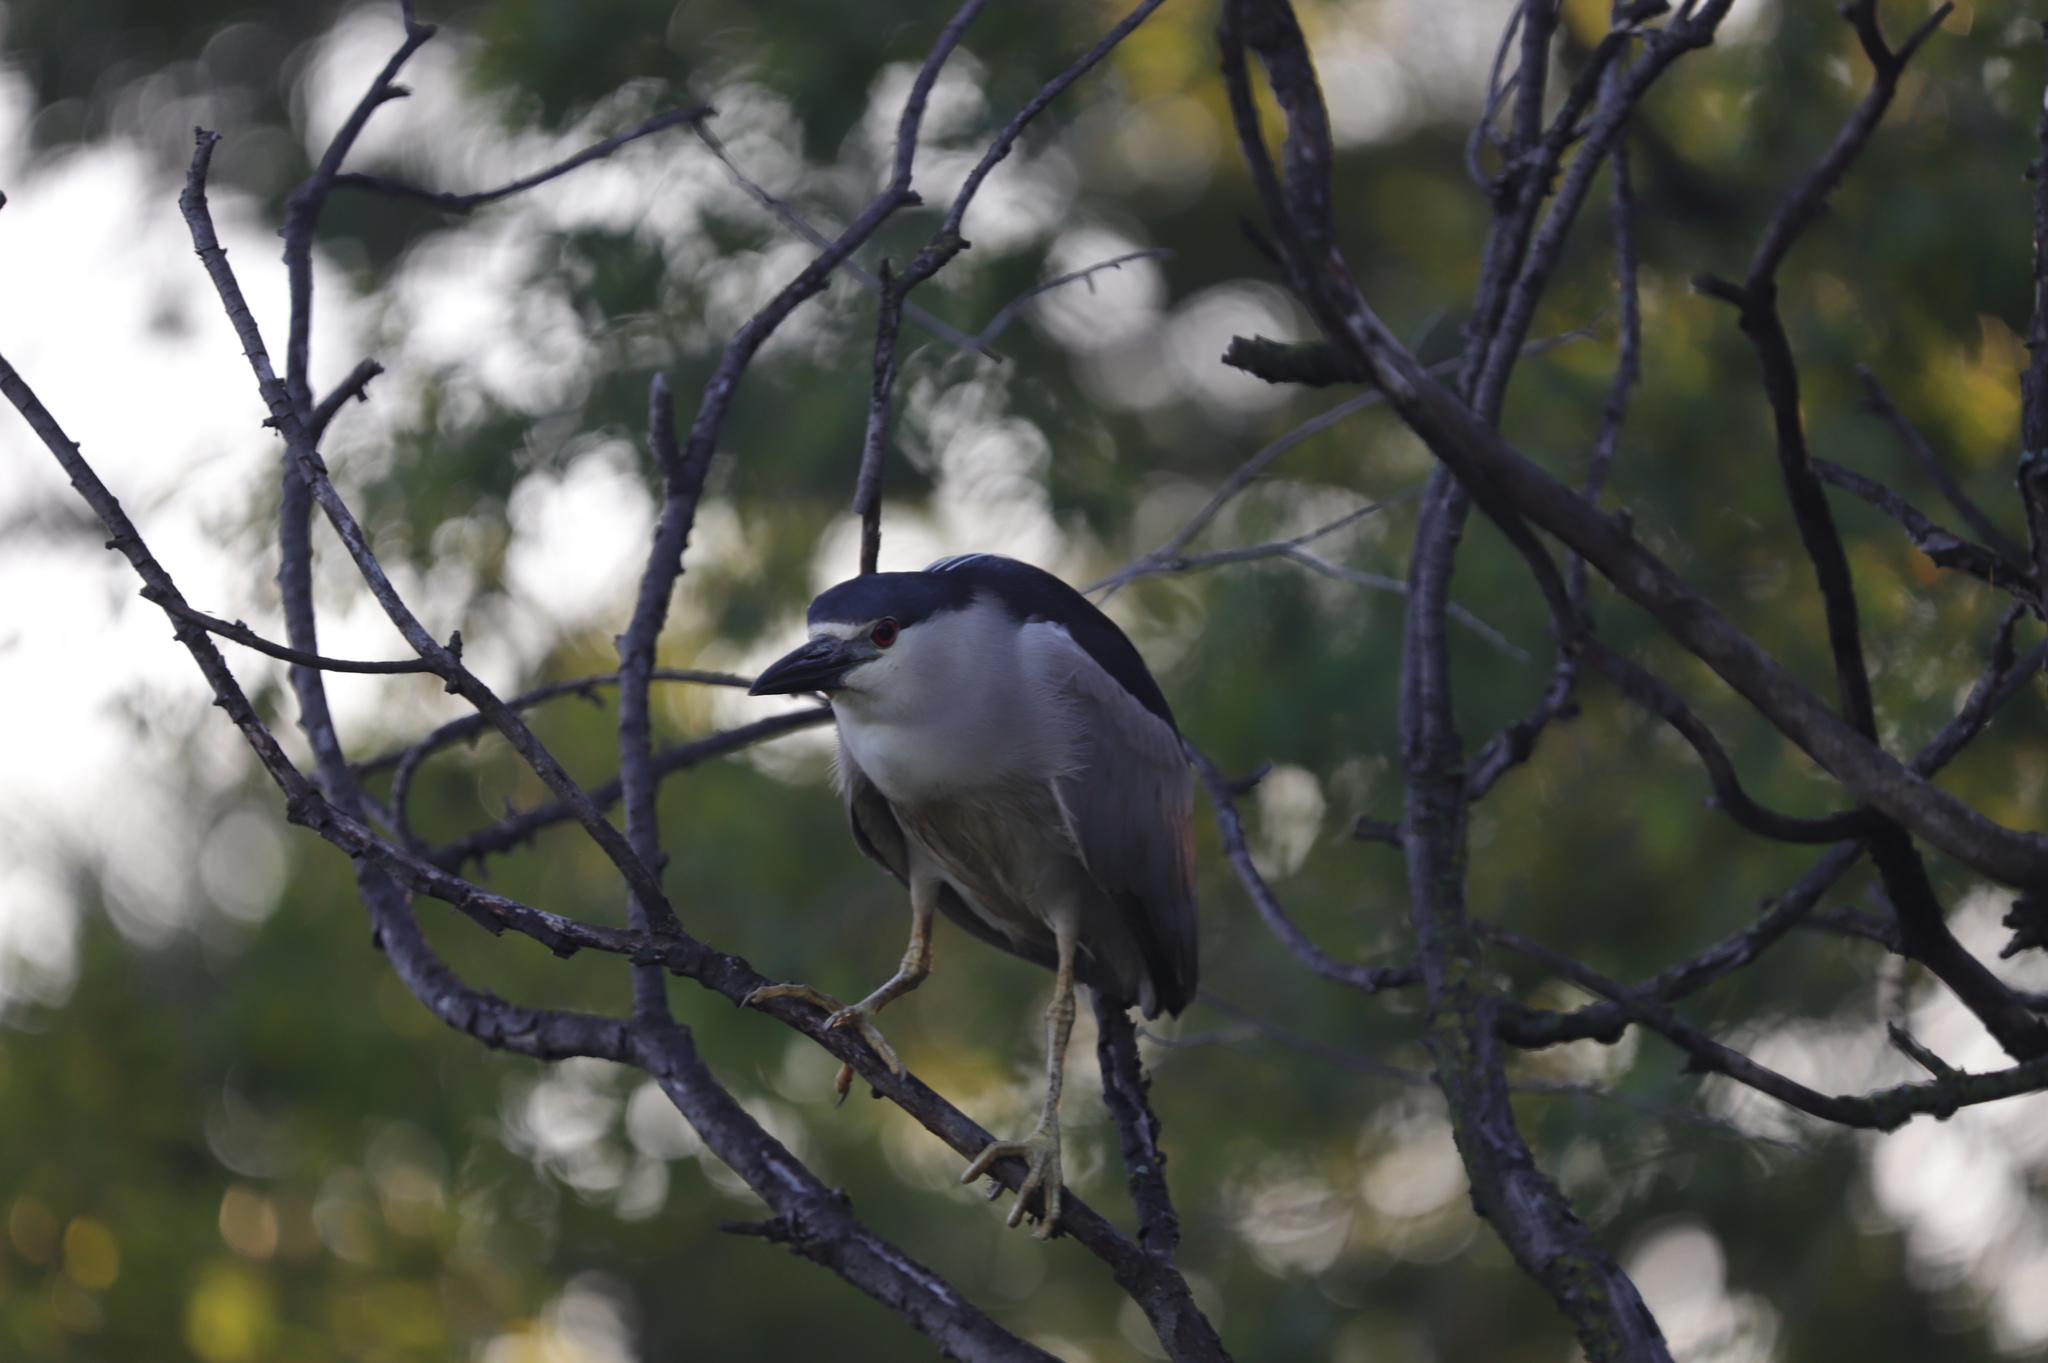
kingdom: Animalia
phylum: Chordata
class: Aves
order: Pelecaniformes
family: Ardeidae
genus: Nycticorax
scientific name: Nycticorax nycticorax
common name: Black-crowned night heron
